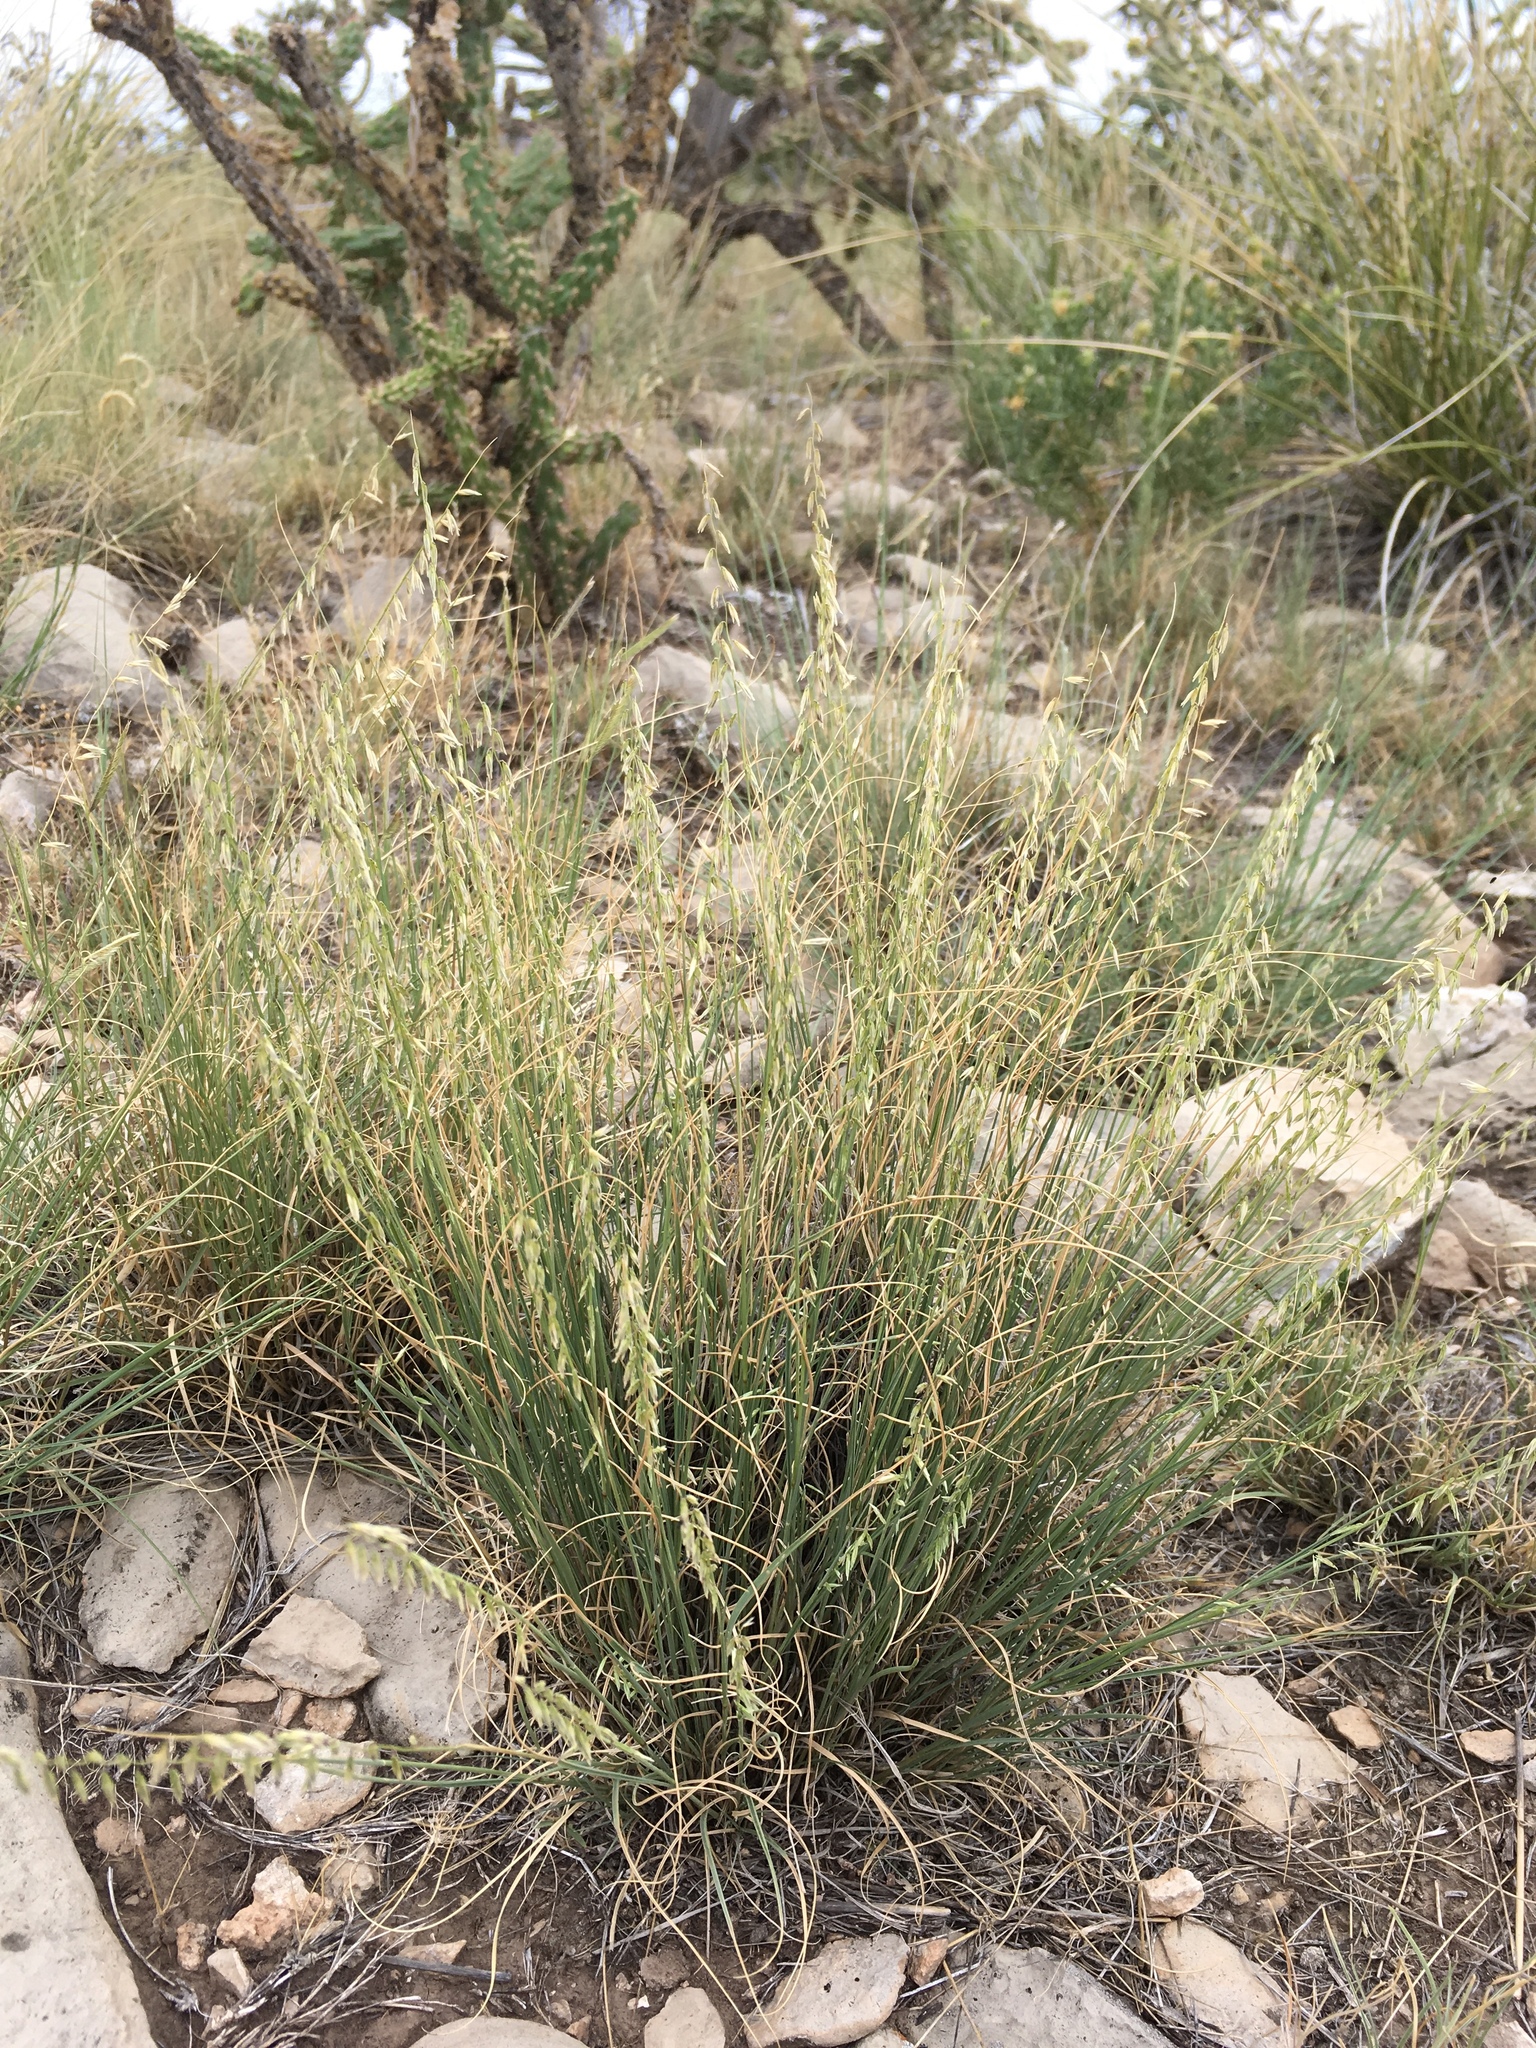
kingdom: Plantae
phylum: Tracheophyta
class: Liliopsida
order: Poales
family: Poaceae
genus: Bouteloua
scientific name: Bouteloua warnockii
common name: Warnock's grama
